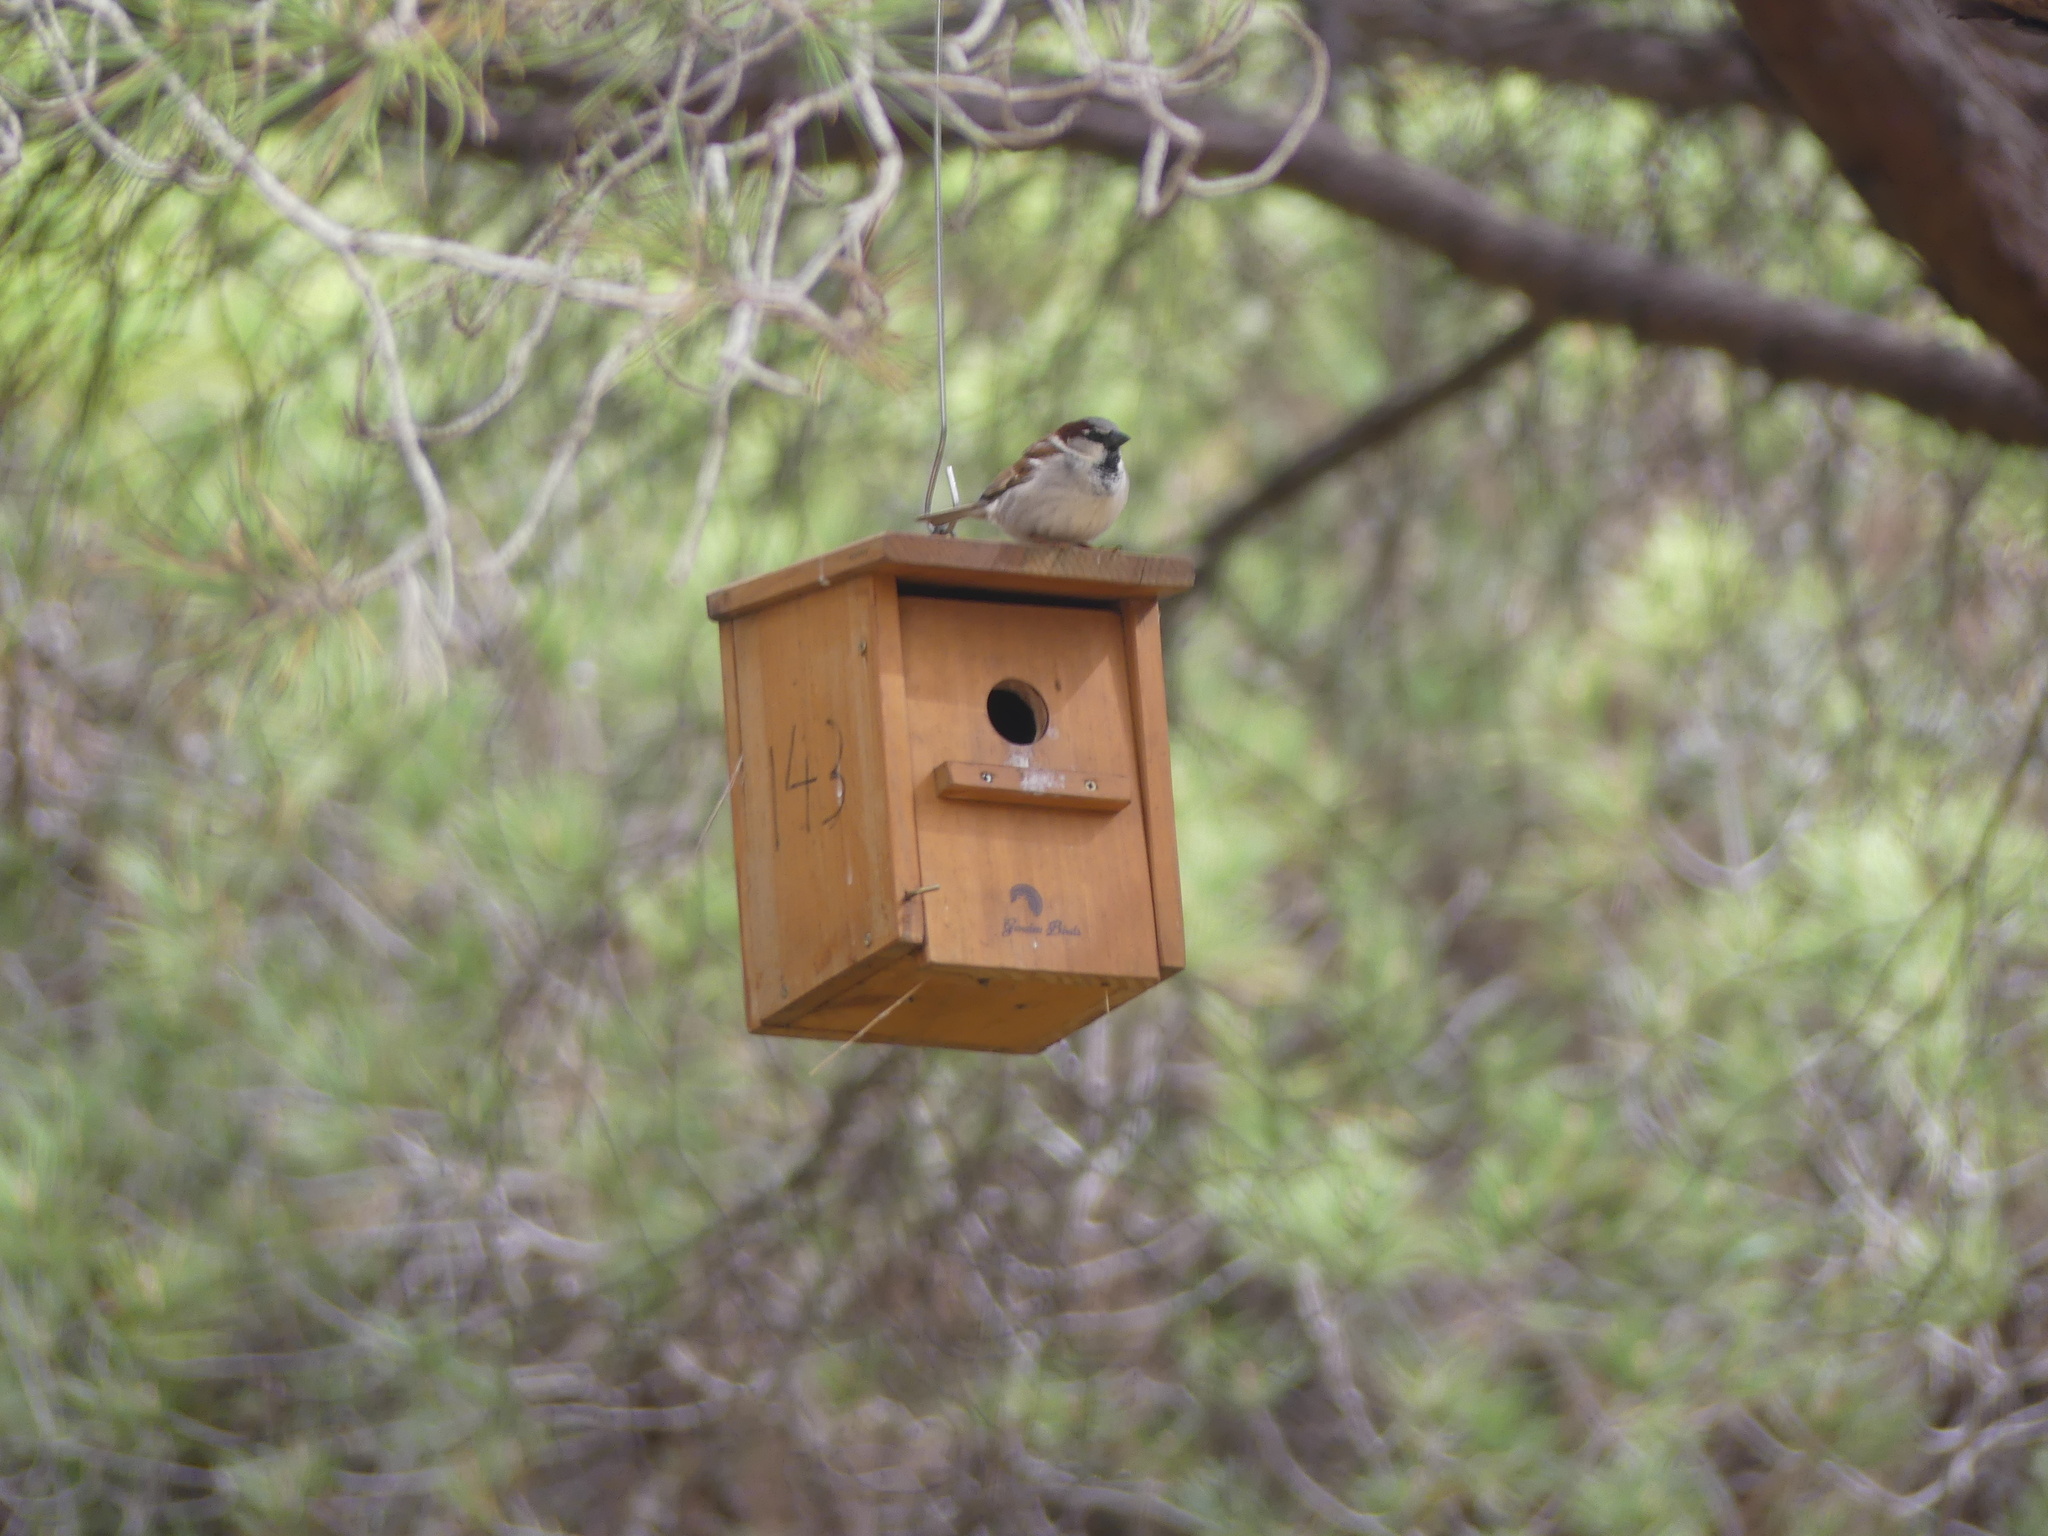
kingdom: Animalia
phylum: Chordata
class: Aves
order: Passeriformes
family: Passeridae
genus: Passer
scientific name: Passer domesticus
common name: House sparrow
